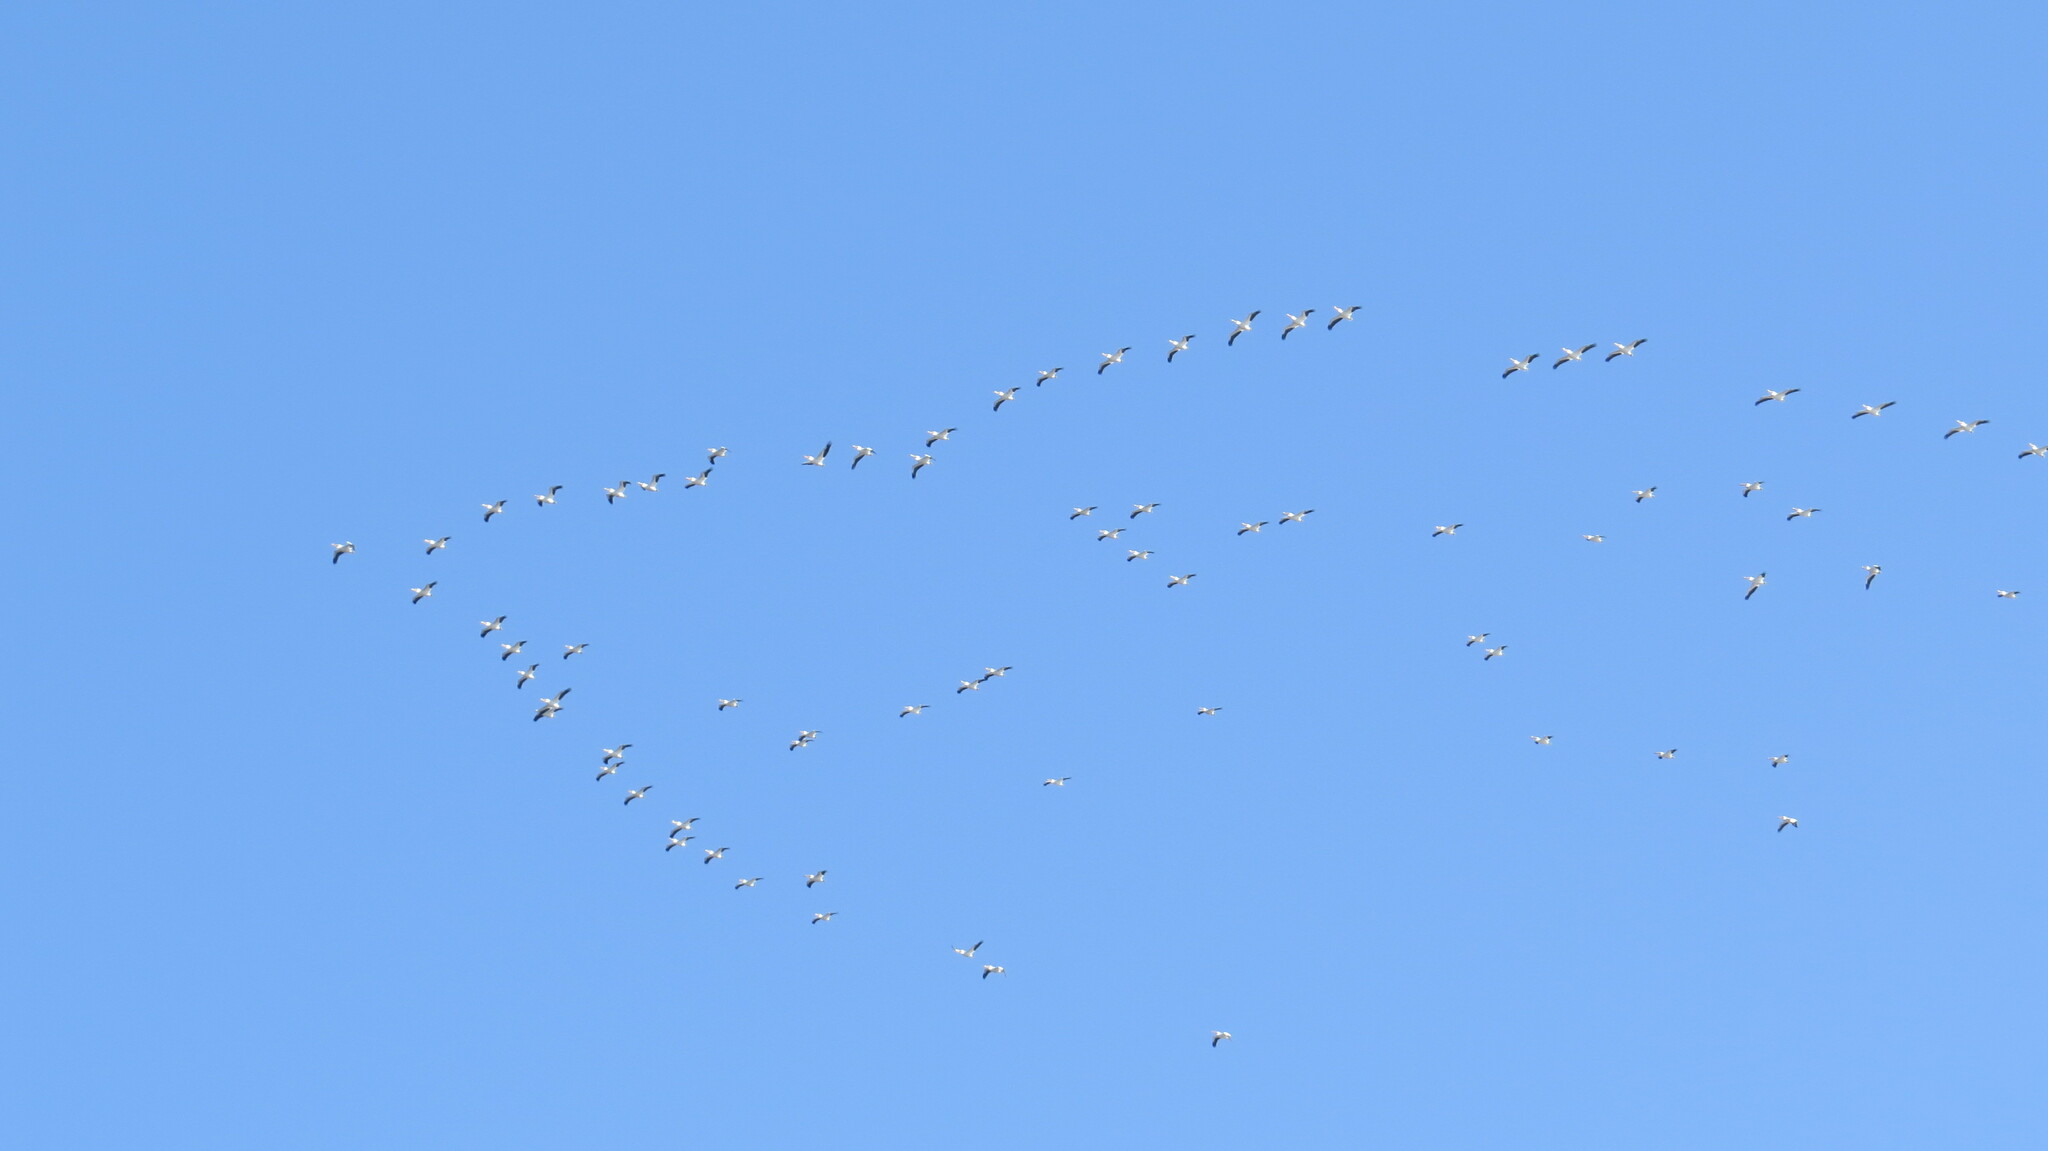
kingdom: Animalia
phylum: Chordata
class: Aves
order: Pelecaniformes
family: Pelecanidae
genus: Pelecanus
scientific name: Pelecanus erythrorhynchos
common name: American white pelican
